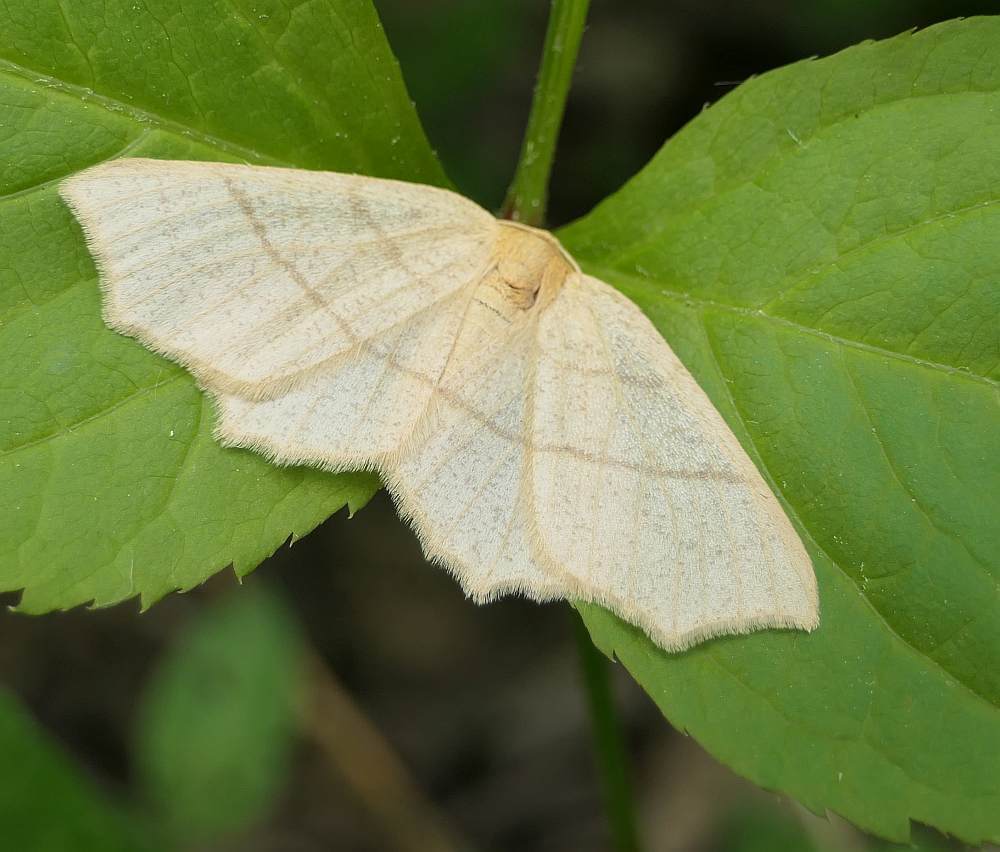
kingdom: Animalia
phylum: Arthropoda
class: Insecta
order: Lepidoptera
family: Geometridae
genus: Besma
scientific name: Besma endropiaria
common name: Straw besma
